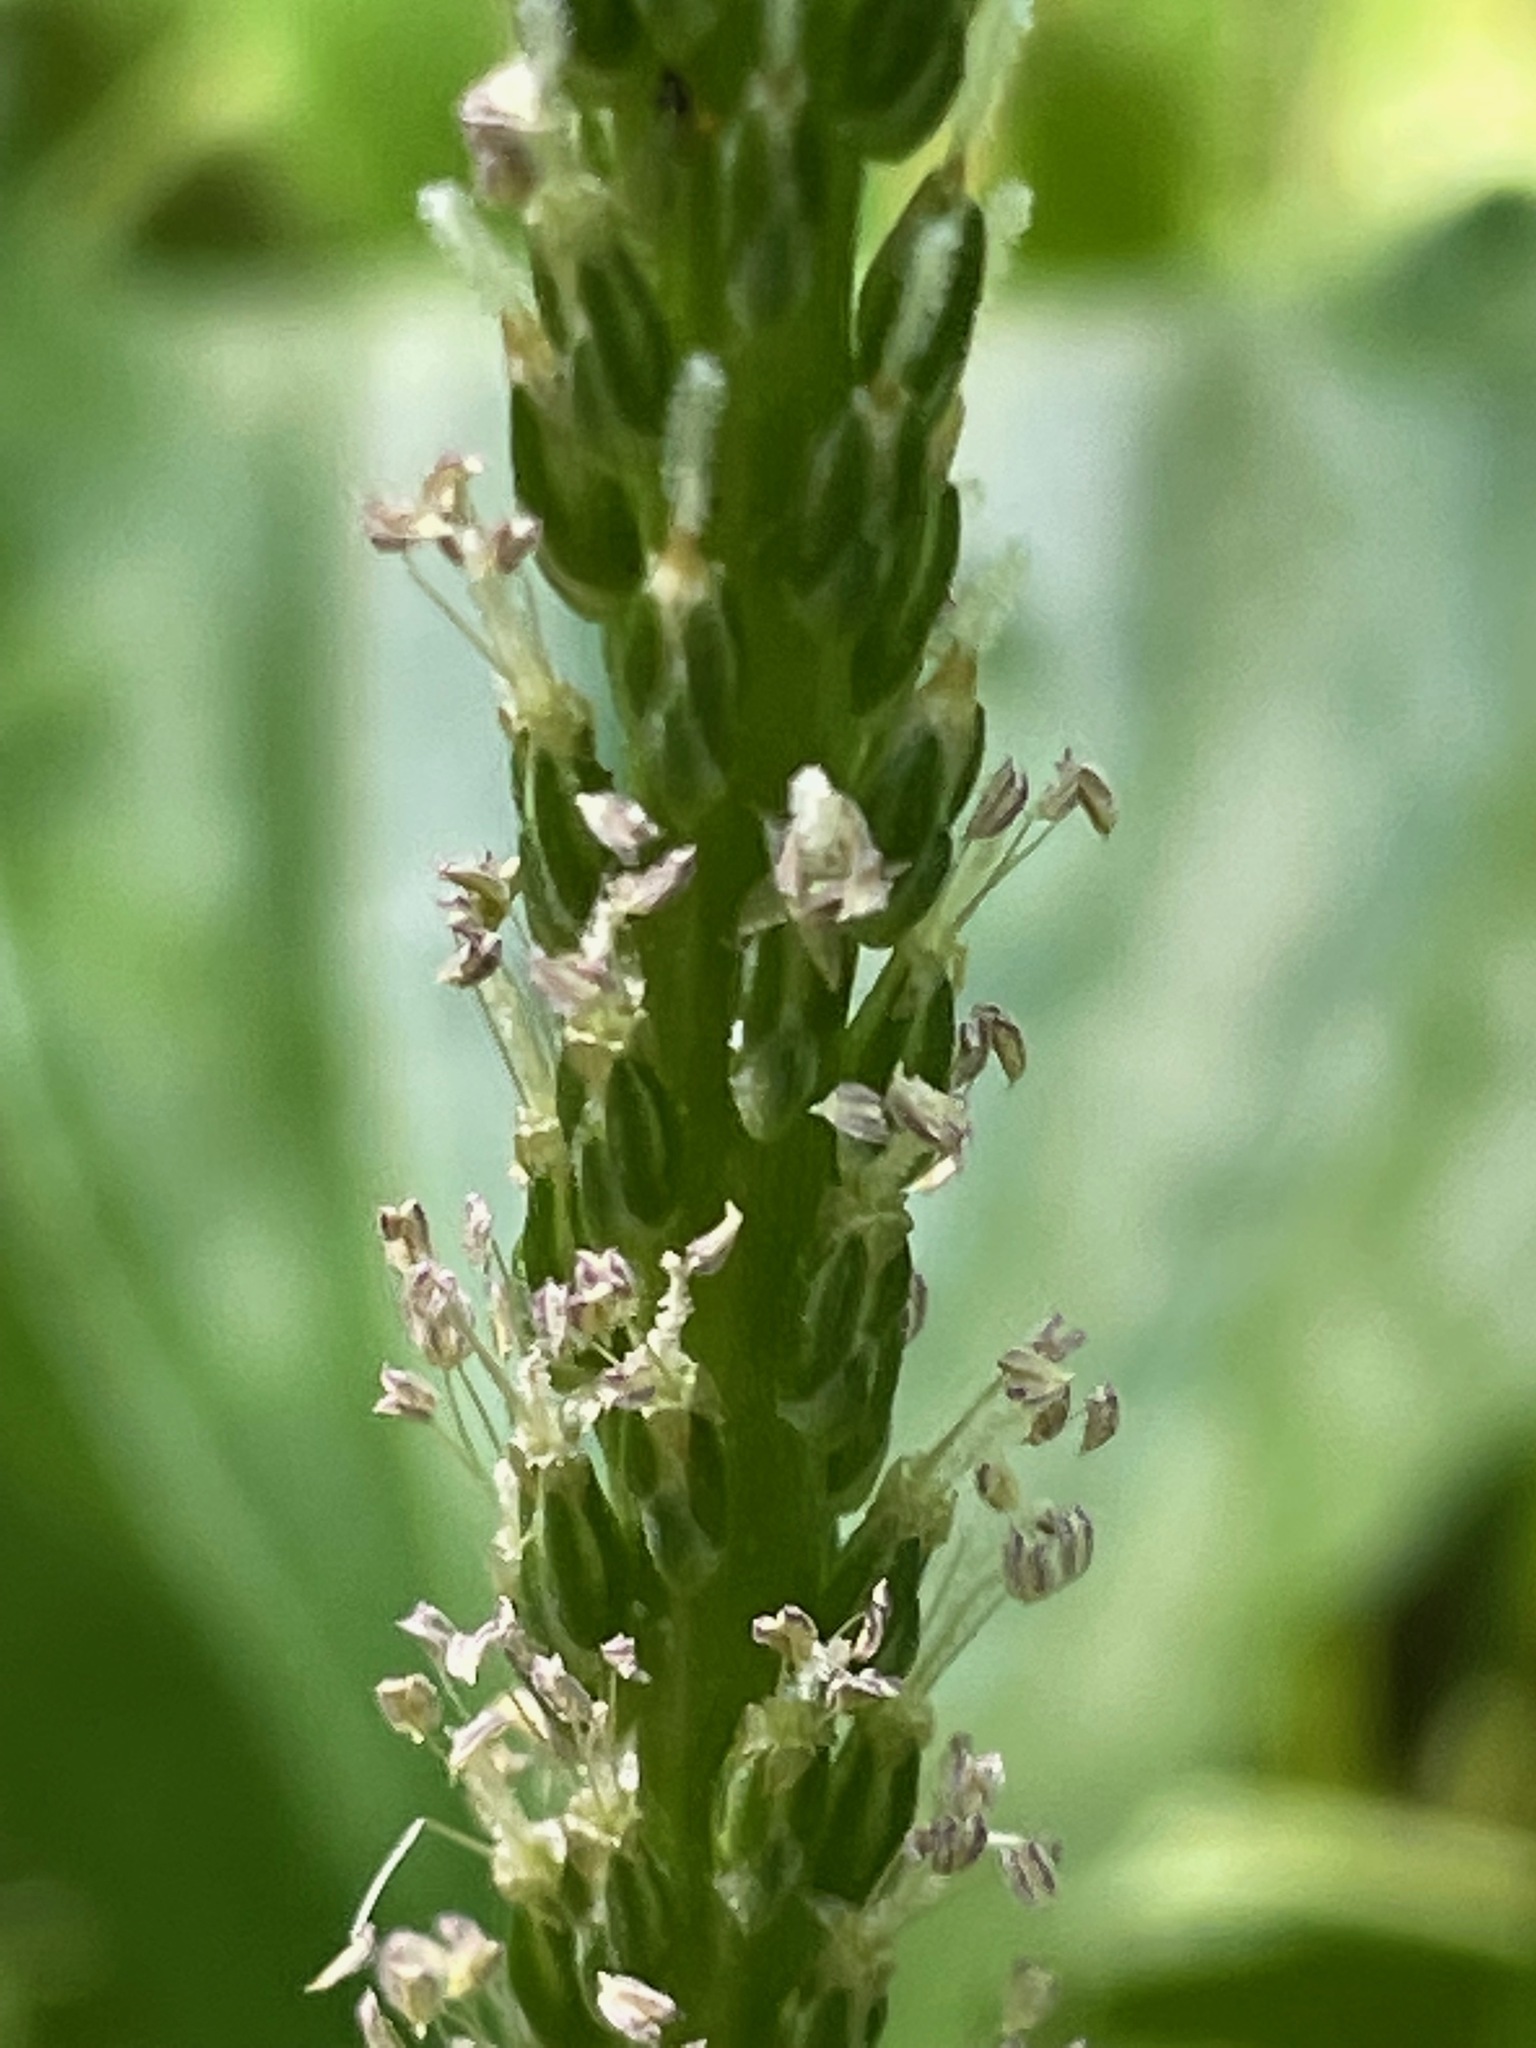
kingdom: Plantae
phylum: Tracheophyta
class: Magnoliopsida
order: Lamiales
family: Plantaginaceae
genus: Plantago
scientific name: Plantago rugelii
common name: American plantain
